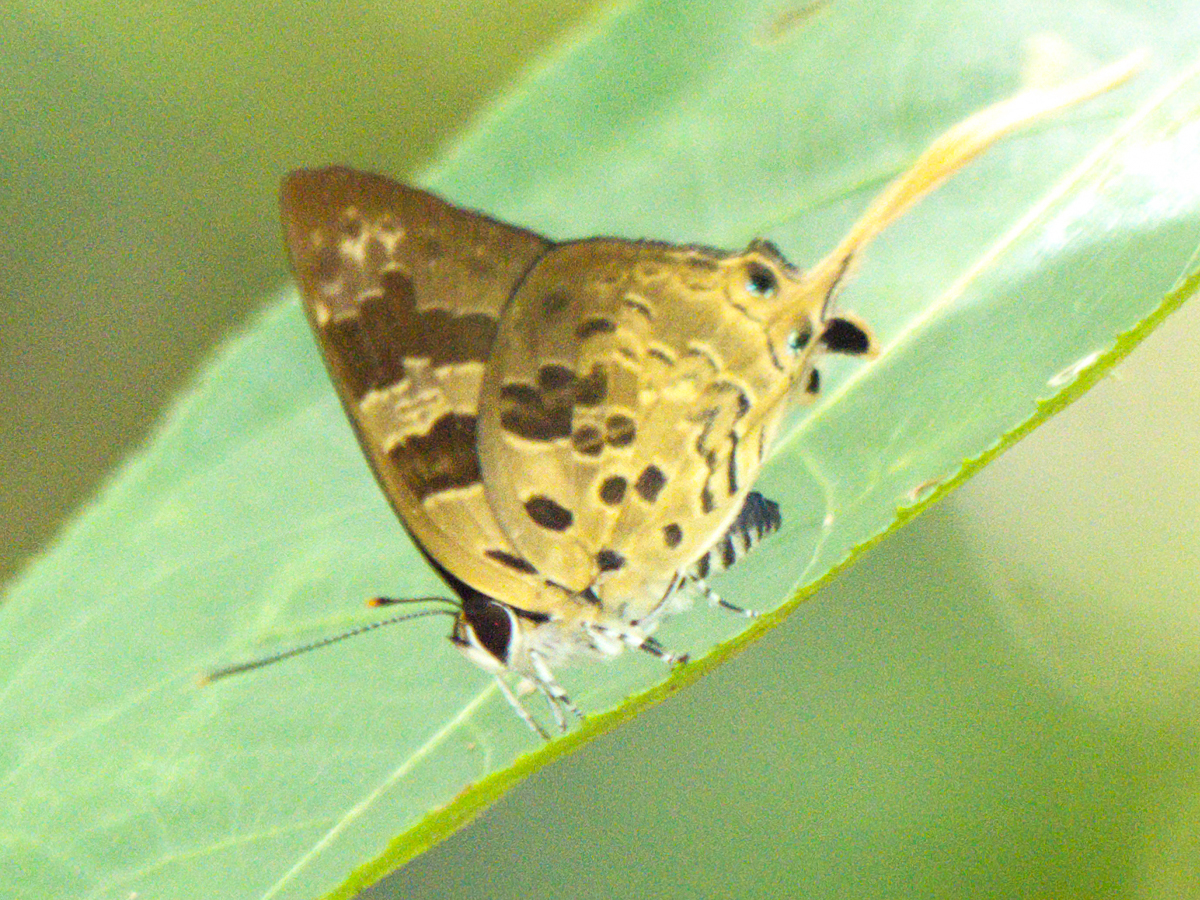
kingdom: Animalia
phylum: Arthropoda
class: Insecta
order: Lepidoptera
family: Lycaenidae
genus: Bindahara
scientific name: Bindahara phocides
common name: Sword-tailed flash
